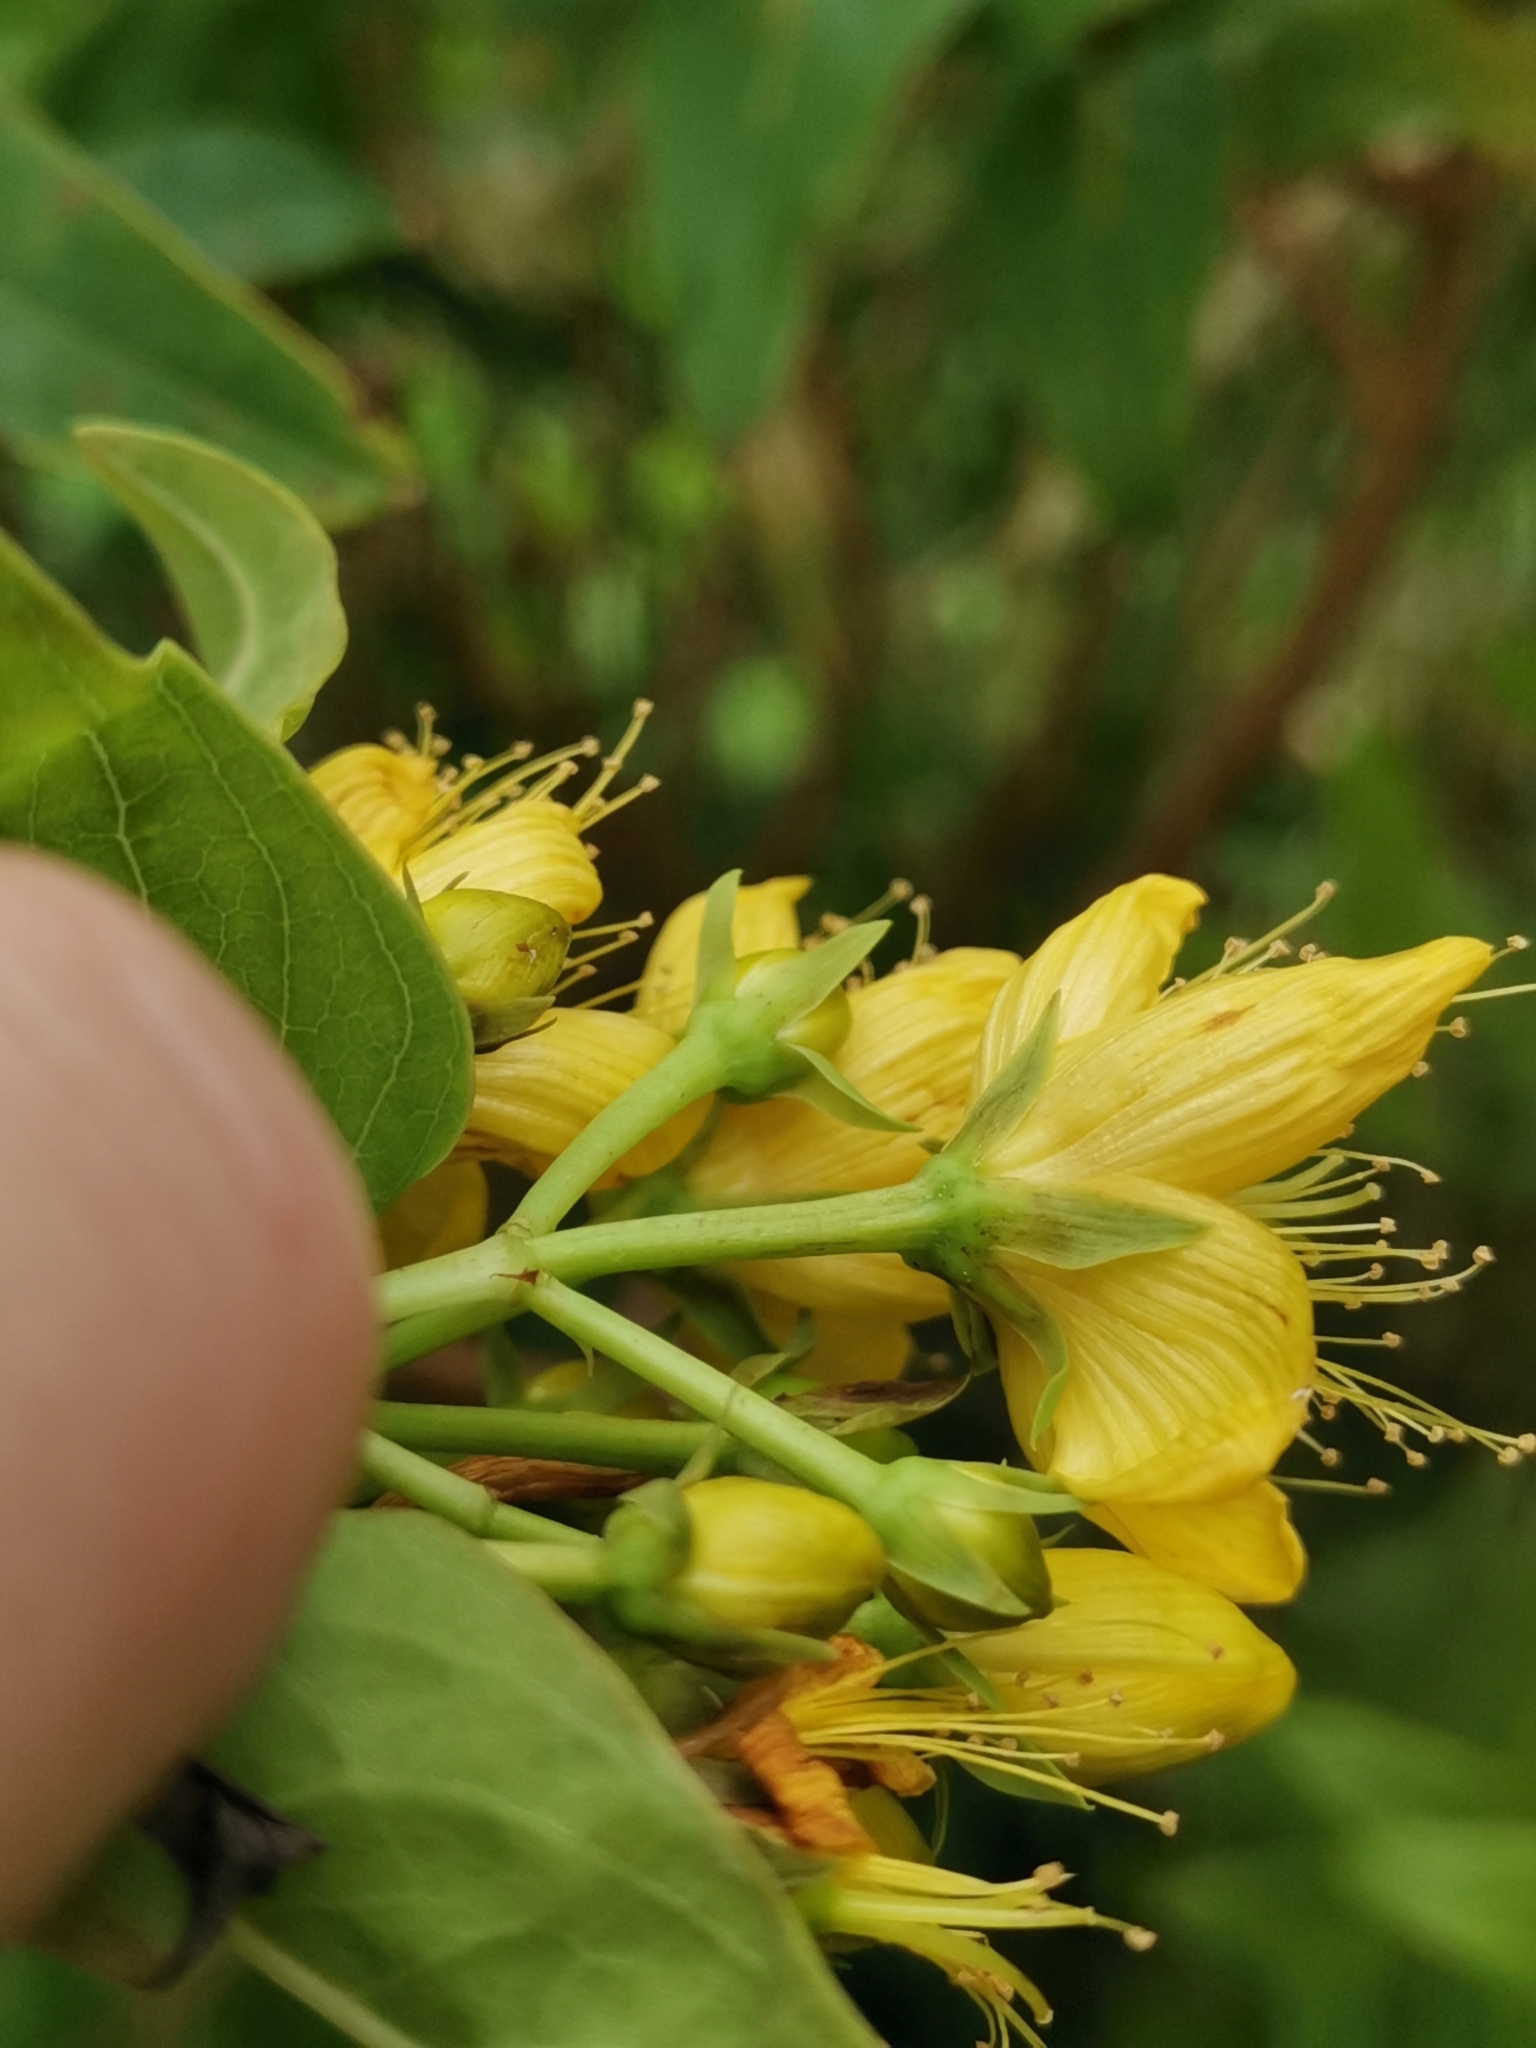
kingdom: Plantae
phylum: Tracheophyta
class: Magnoliopsida
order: Malpighiales
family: Hypericaceae
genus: Hypericum
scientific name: Hypericum foliosum
